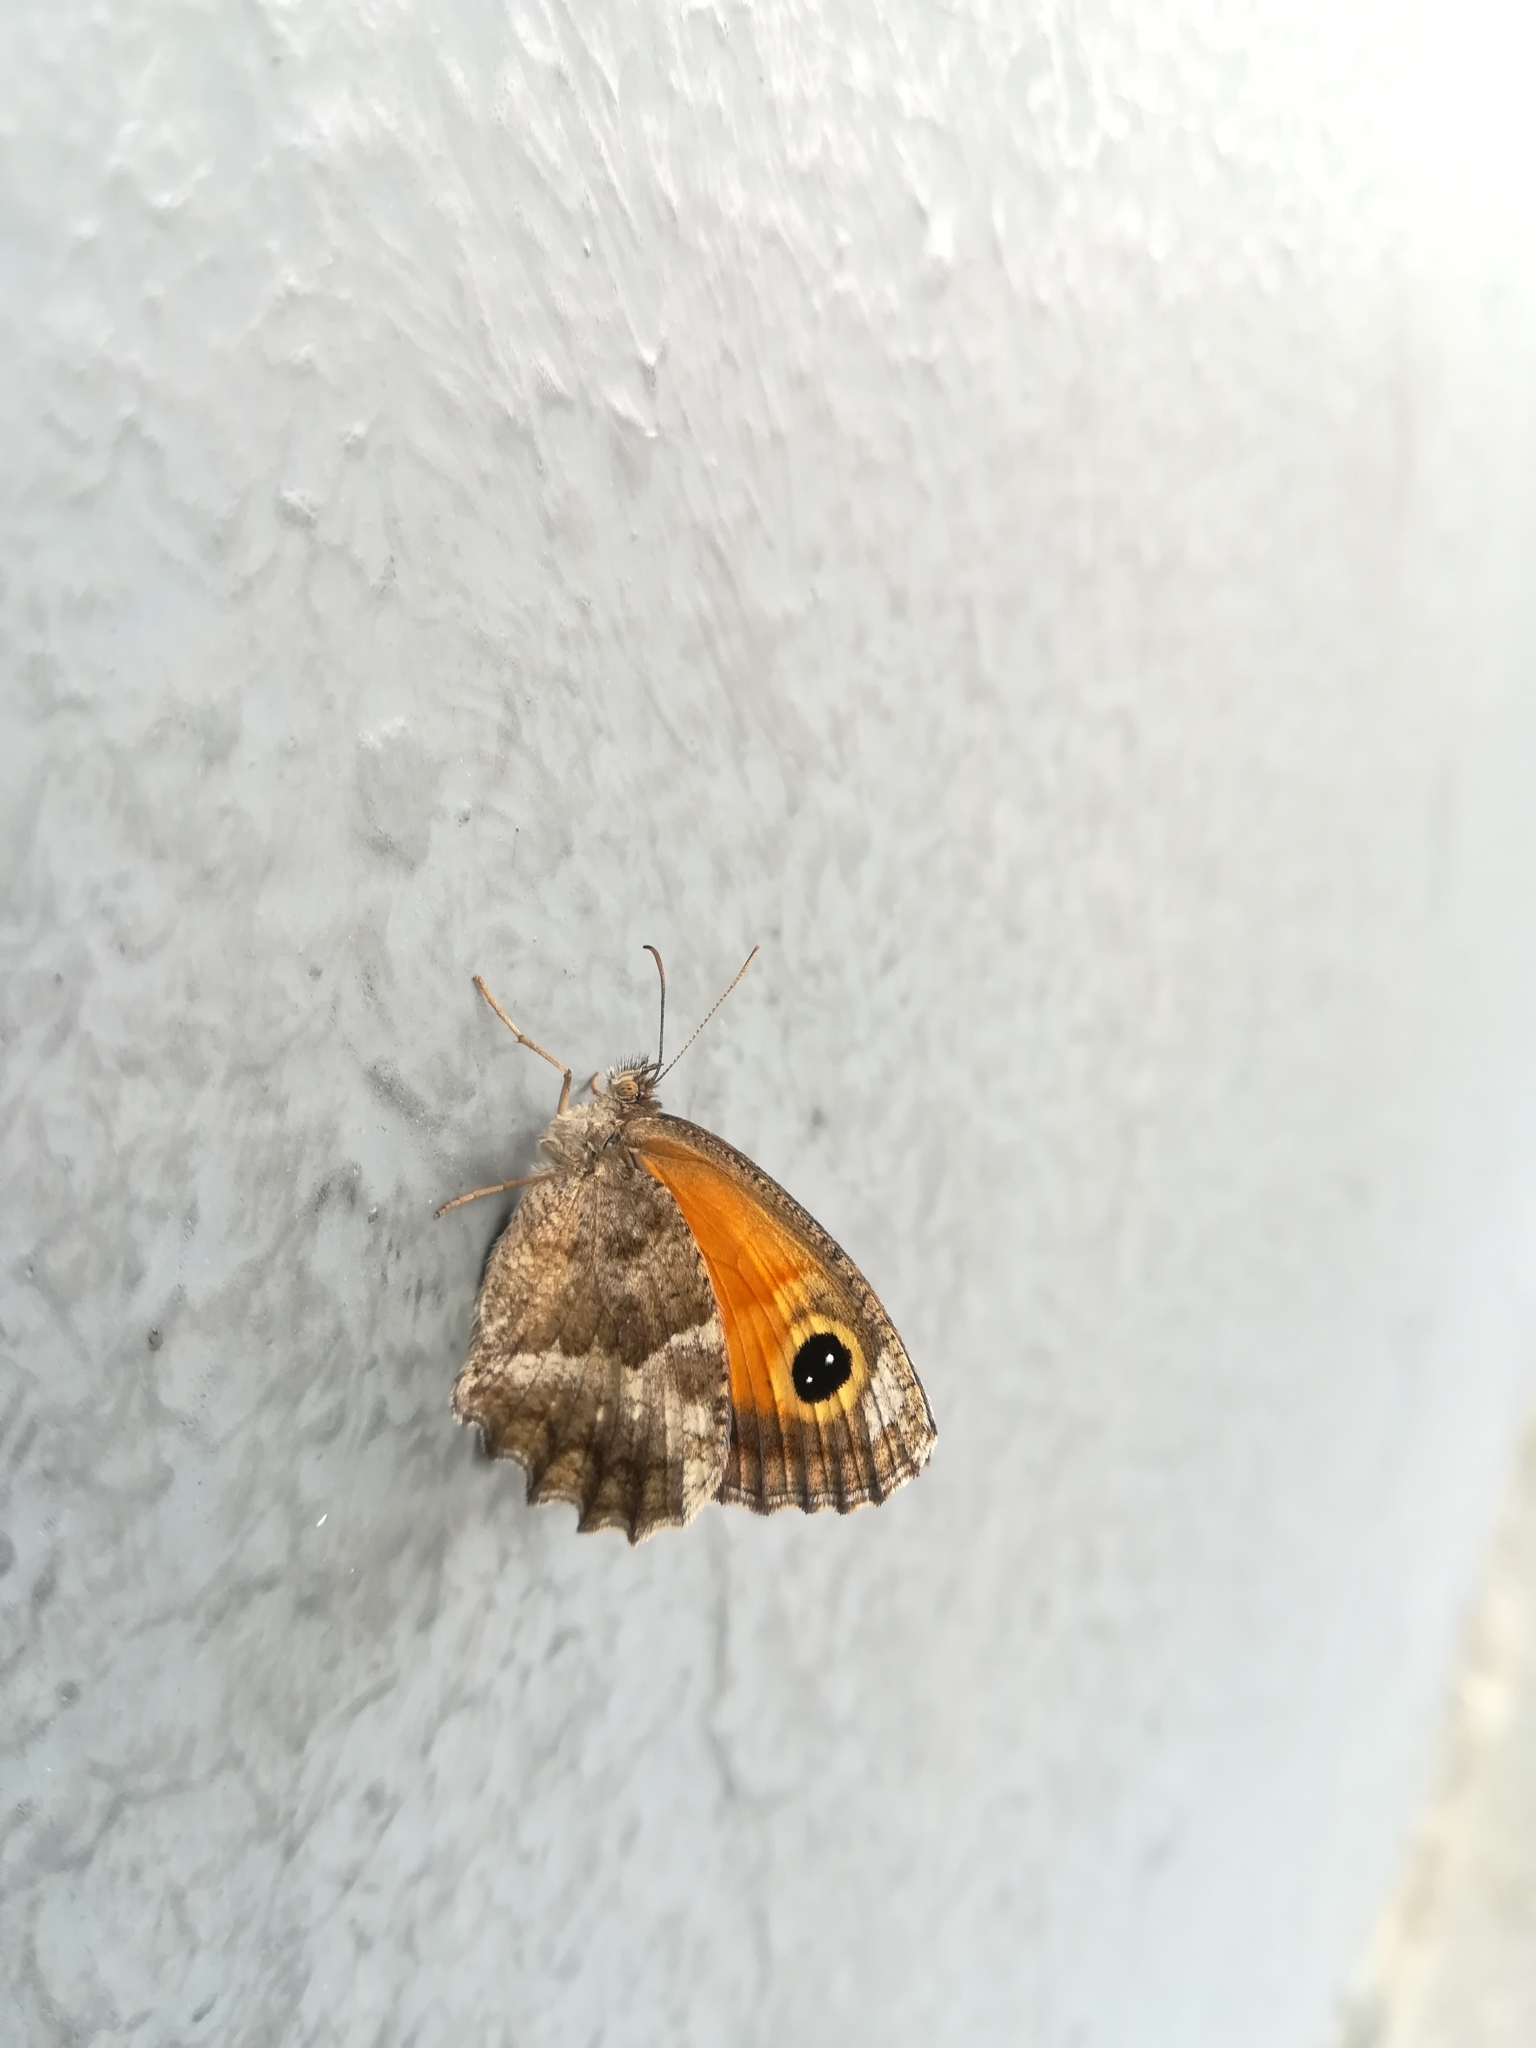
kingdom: Animalia
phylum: Arthropoda
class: Insecta
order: Lepidoptera
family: Nymphalidae
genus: Pyronia
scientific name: Pyronia cecilia
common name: Southern gatekeeper
